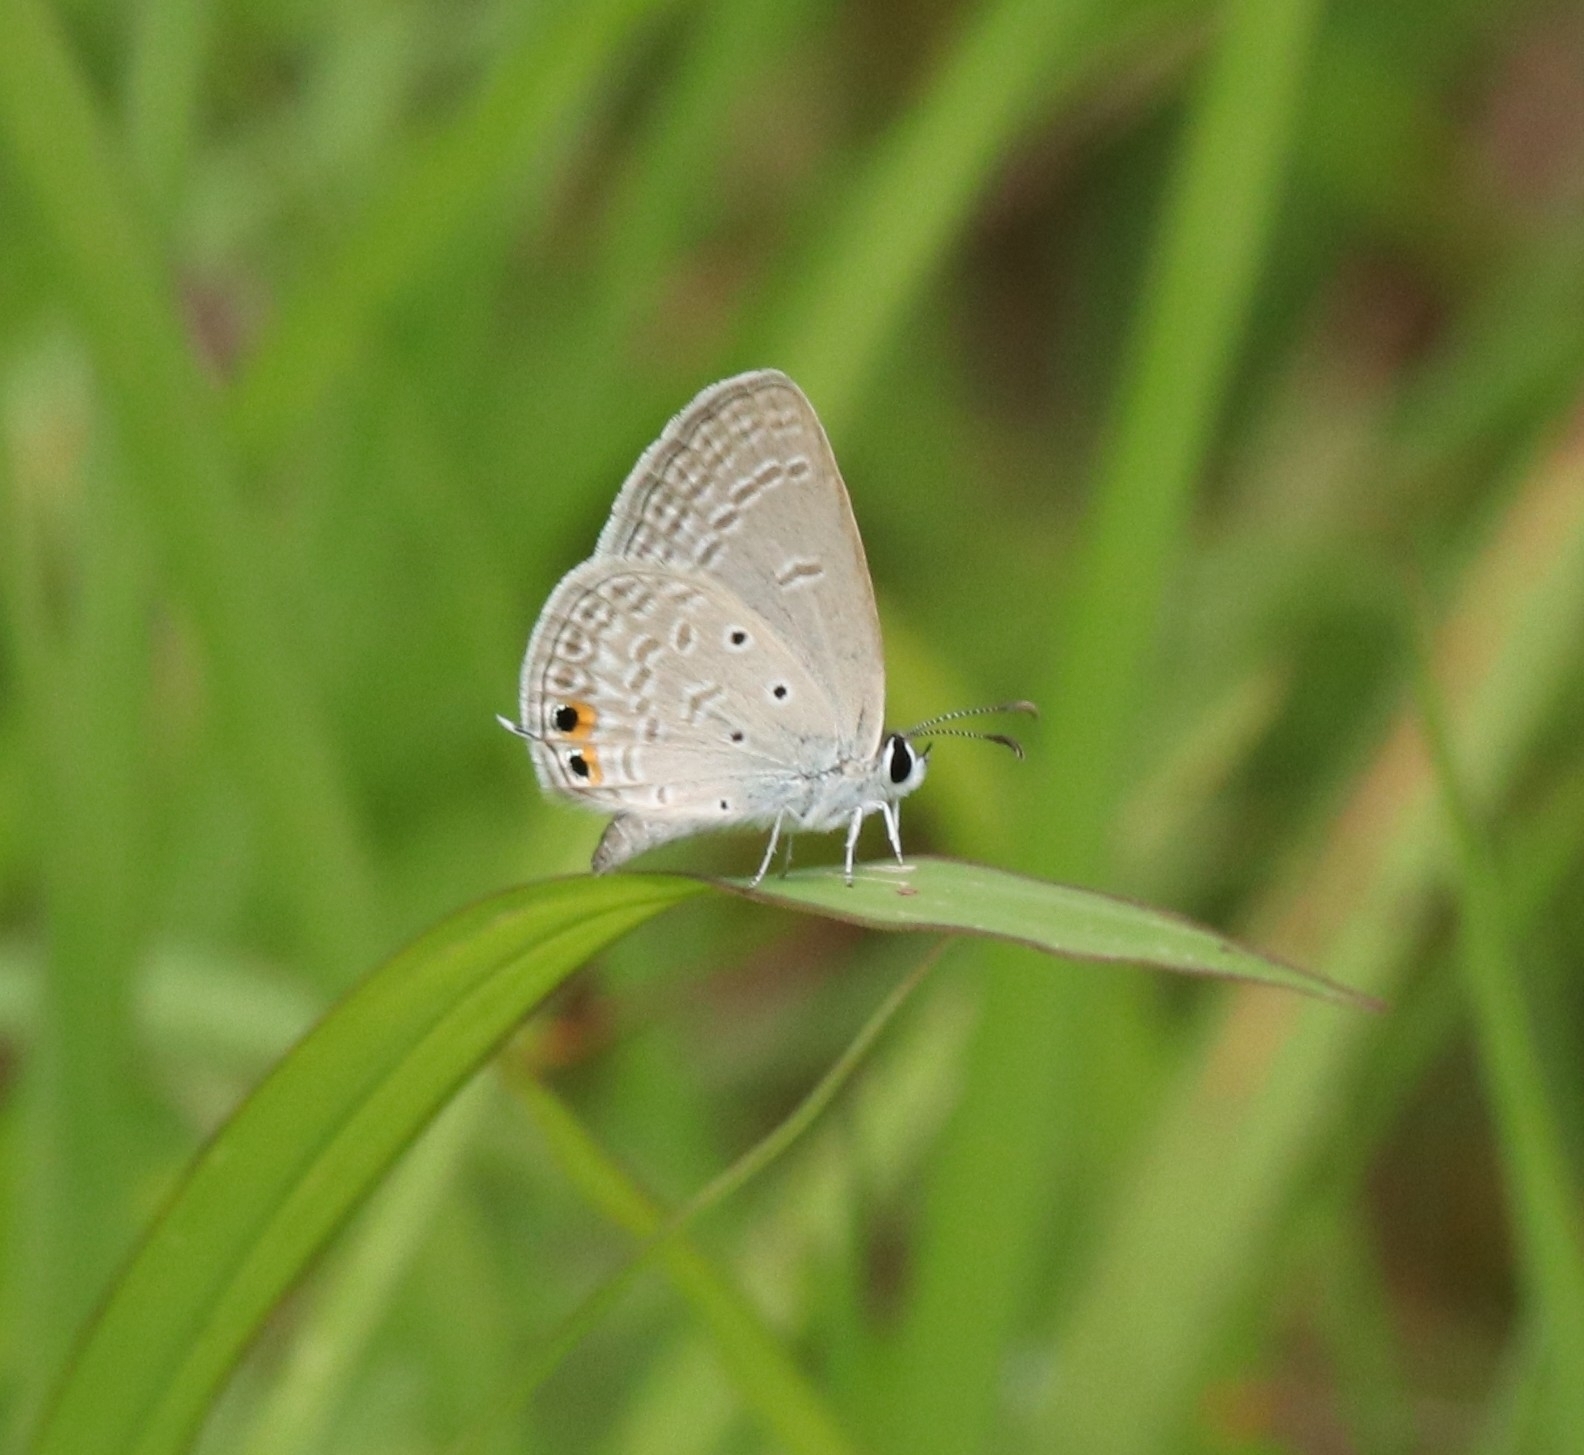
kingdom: Animalia
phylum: Arthropoda
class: Insecta
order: Lepidoptera
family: Lycaenidae
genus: Euchrysops
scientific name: Euchrysops cnejus
